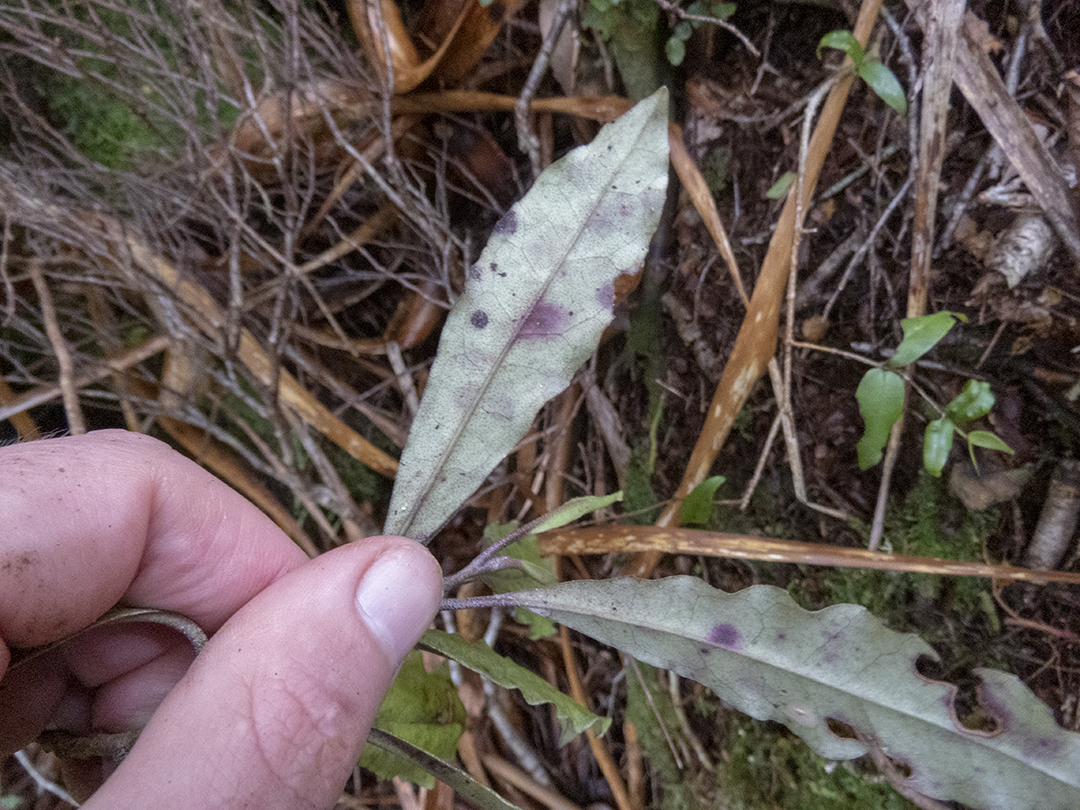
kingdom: Plantae
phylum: Tracheophyta
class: Magnoliopsida
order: Paracryphiales
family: Paracryphiaceae
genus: Quintinia
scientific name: Quintinia serrata
